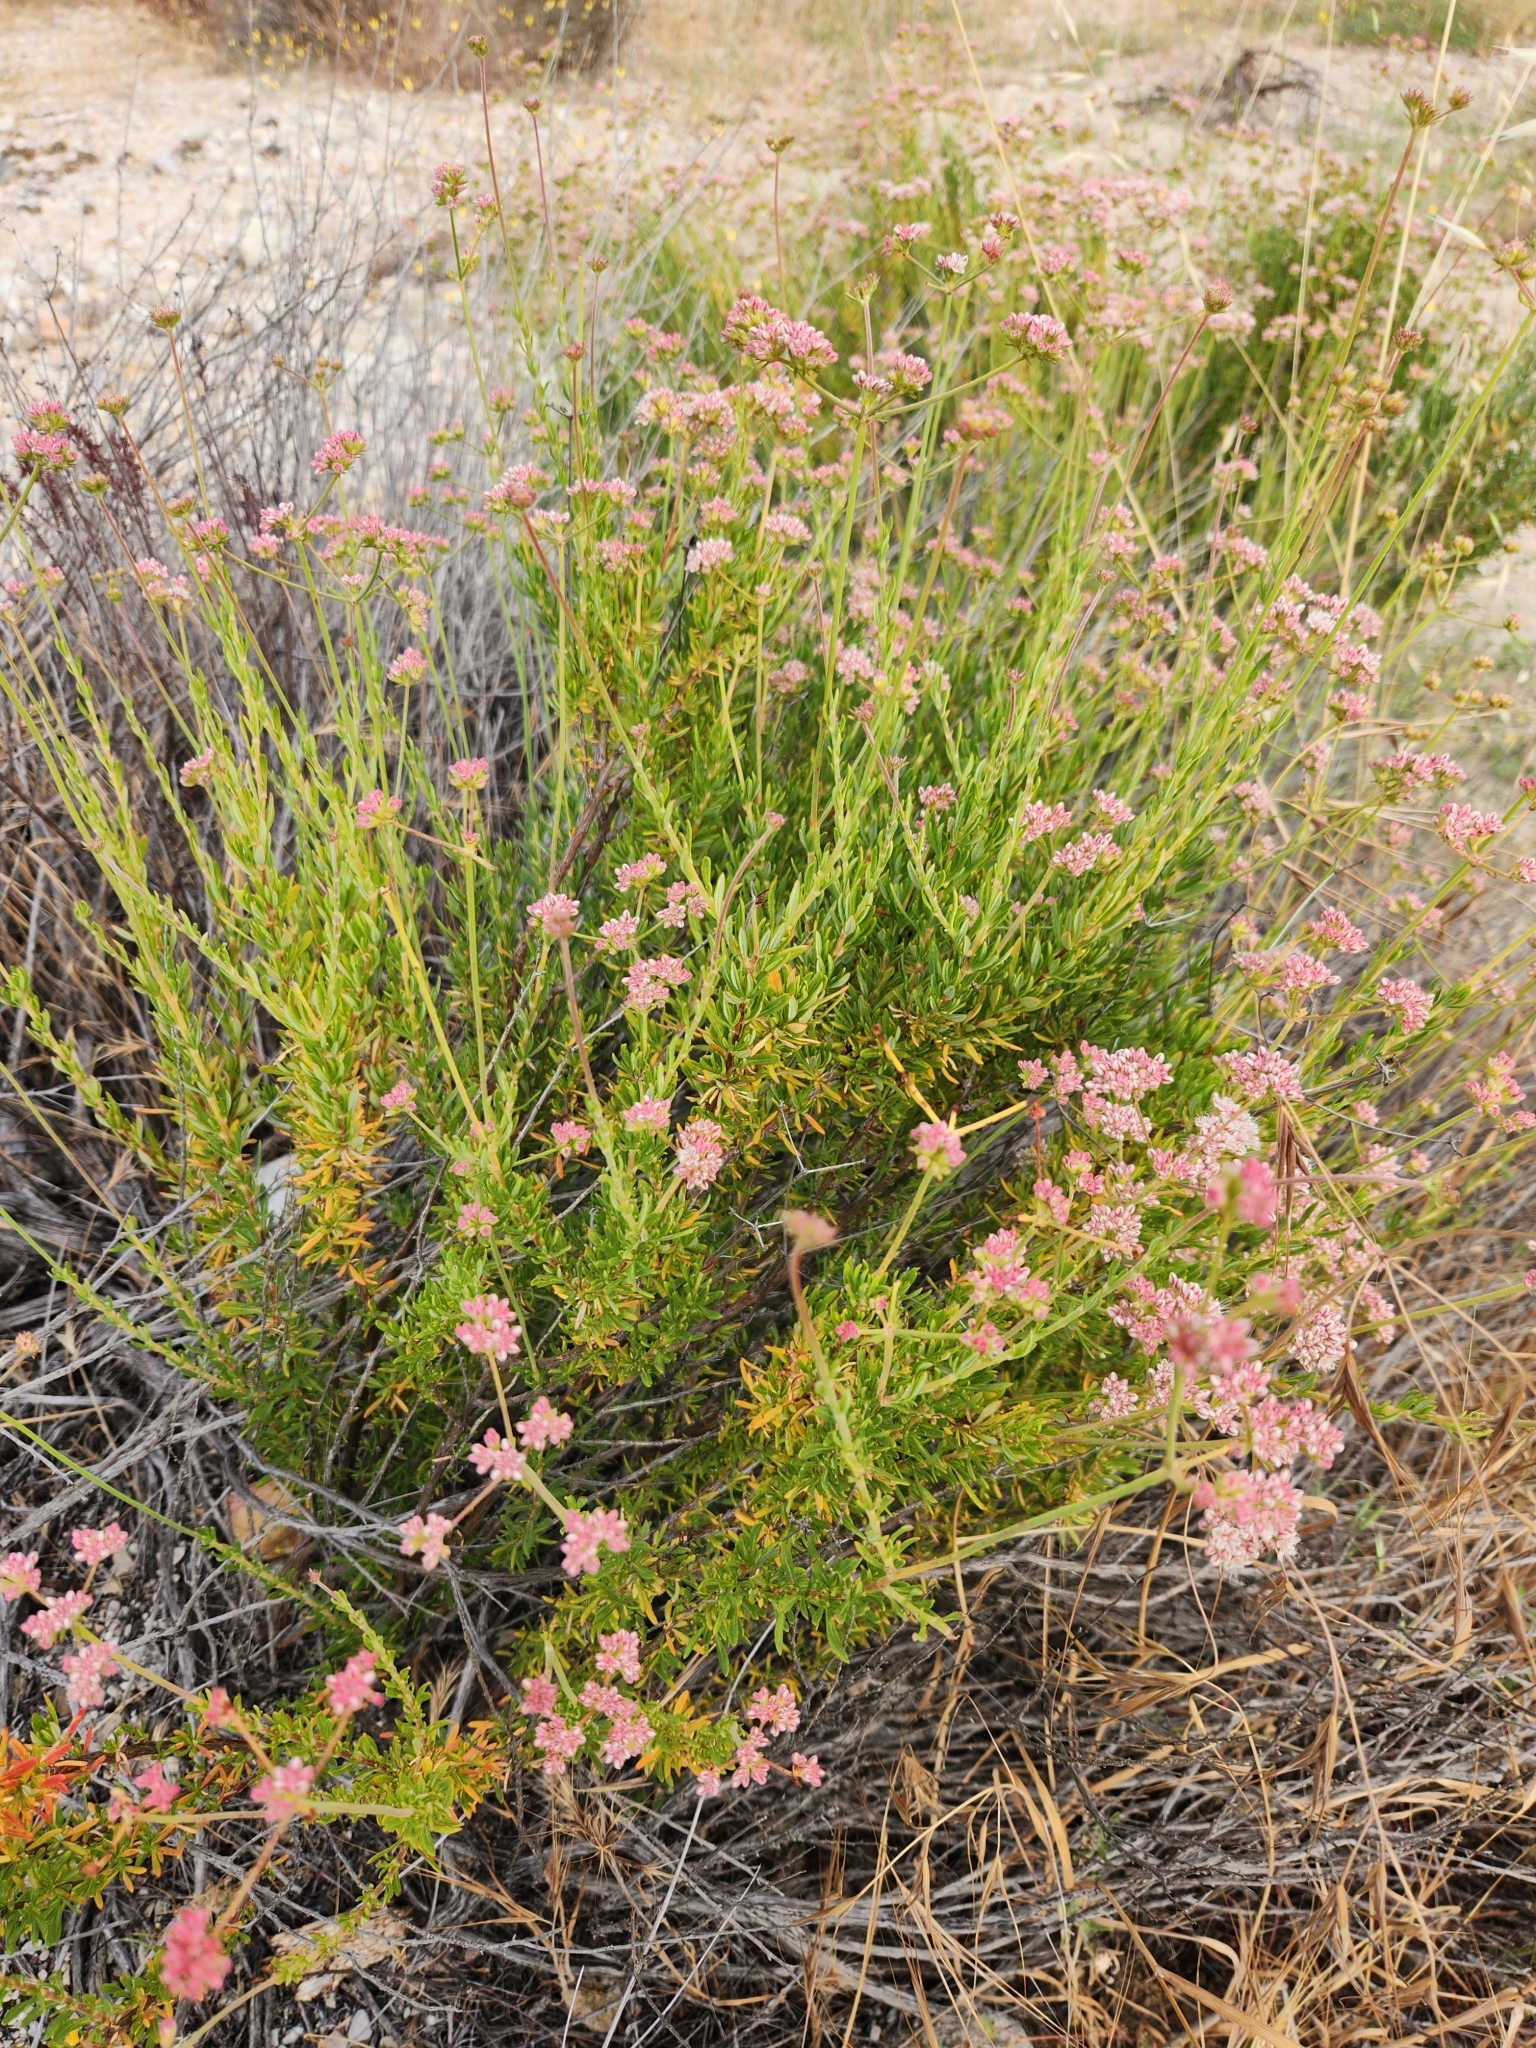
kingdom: Plantae
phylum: Tracheophyta
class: Magnoliopsida
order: Caryophyllales
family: Polygonaceae
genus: Eriogonum
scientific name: Eriogonum fasciculatum
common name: California wild buckwheat
